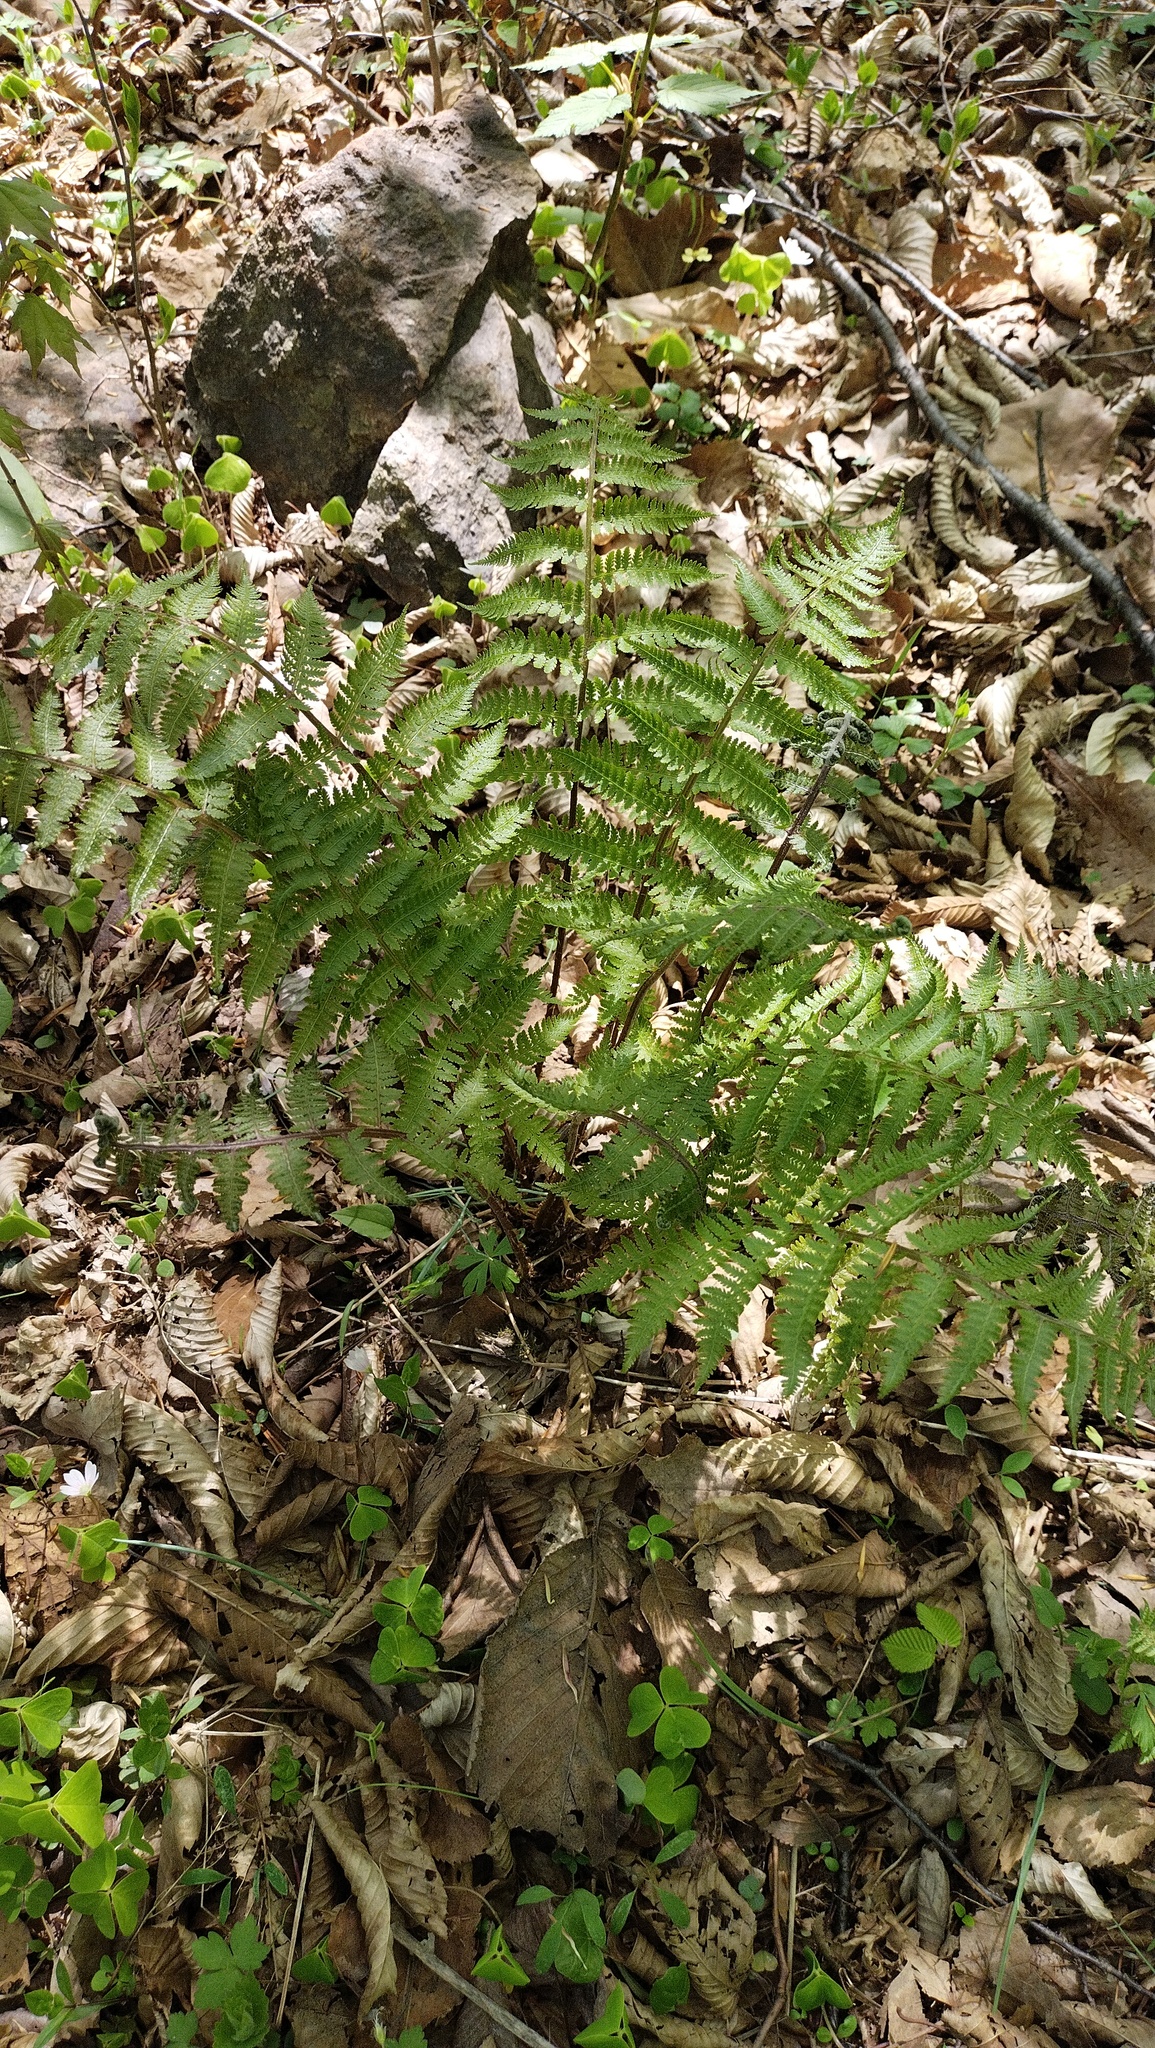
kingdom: Plantae
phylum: Tracheophyta
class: Polypodiopsida
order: Polypodiales
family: Athyriaceae
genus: Athyrium
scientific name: Athyrium filix-femina
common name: Lady fern
